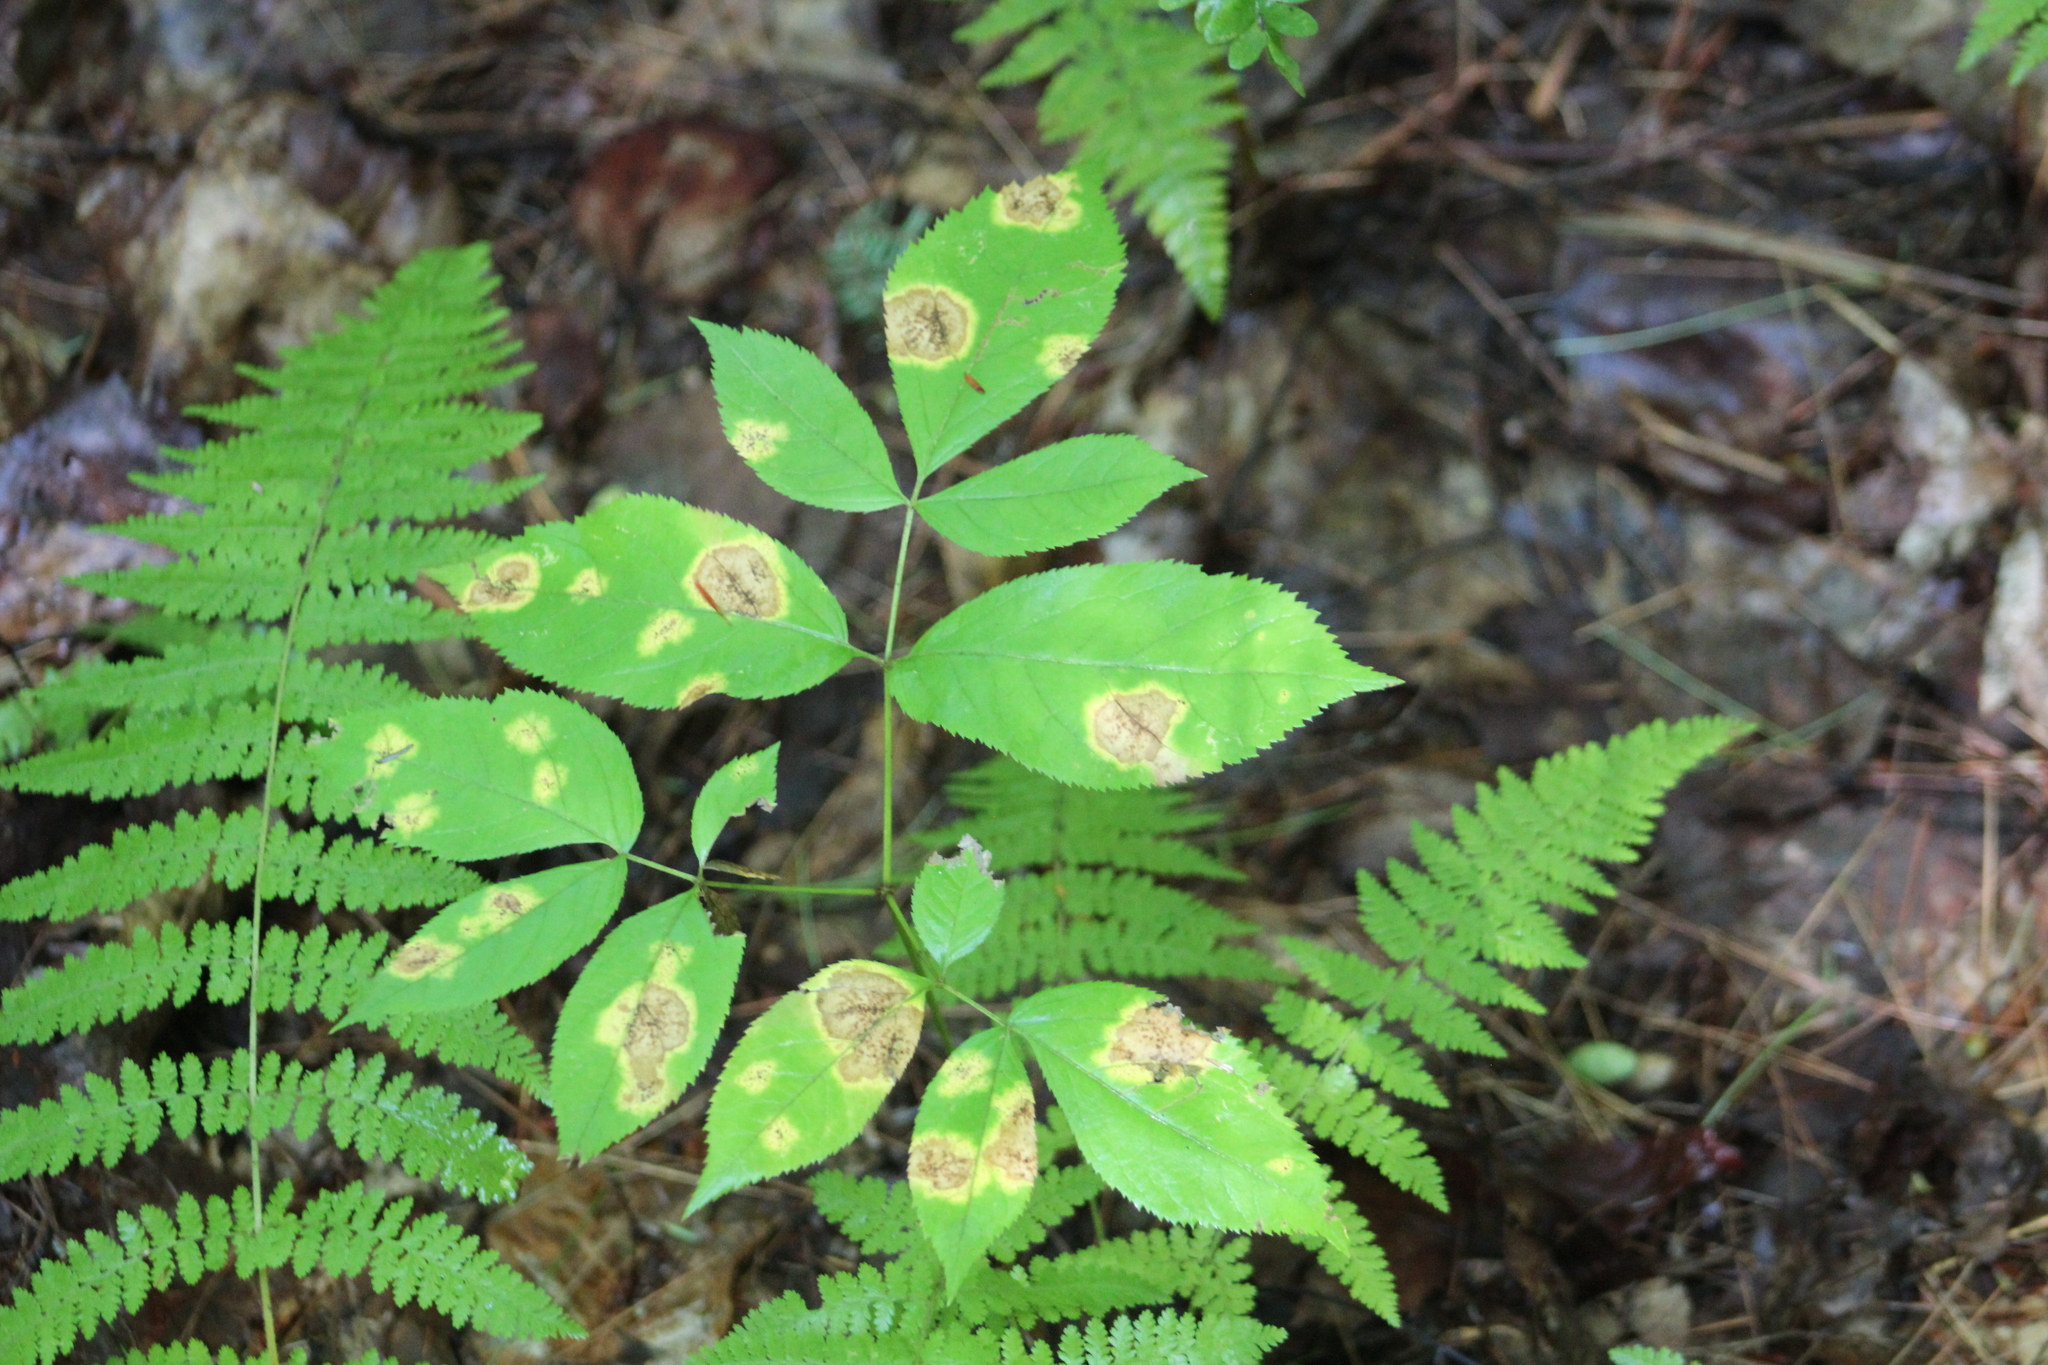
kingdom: Plantae
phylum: Tracheophyta
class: Magnoliopsida
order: Apiales
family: Araliaceae
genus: Aralia
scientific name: Aralia nudicaulis
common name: Wild sarsaparilla
